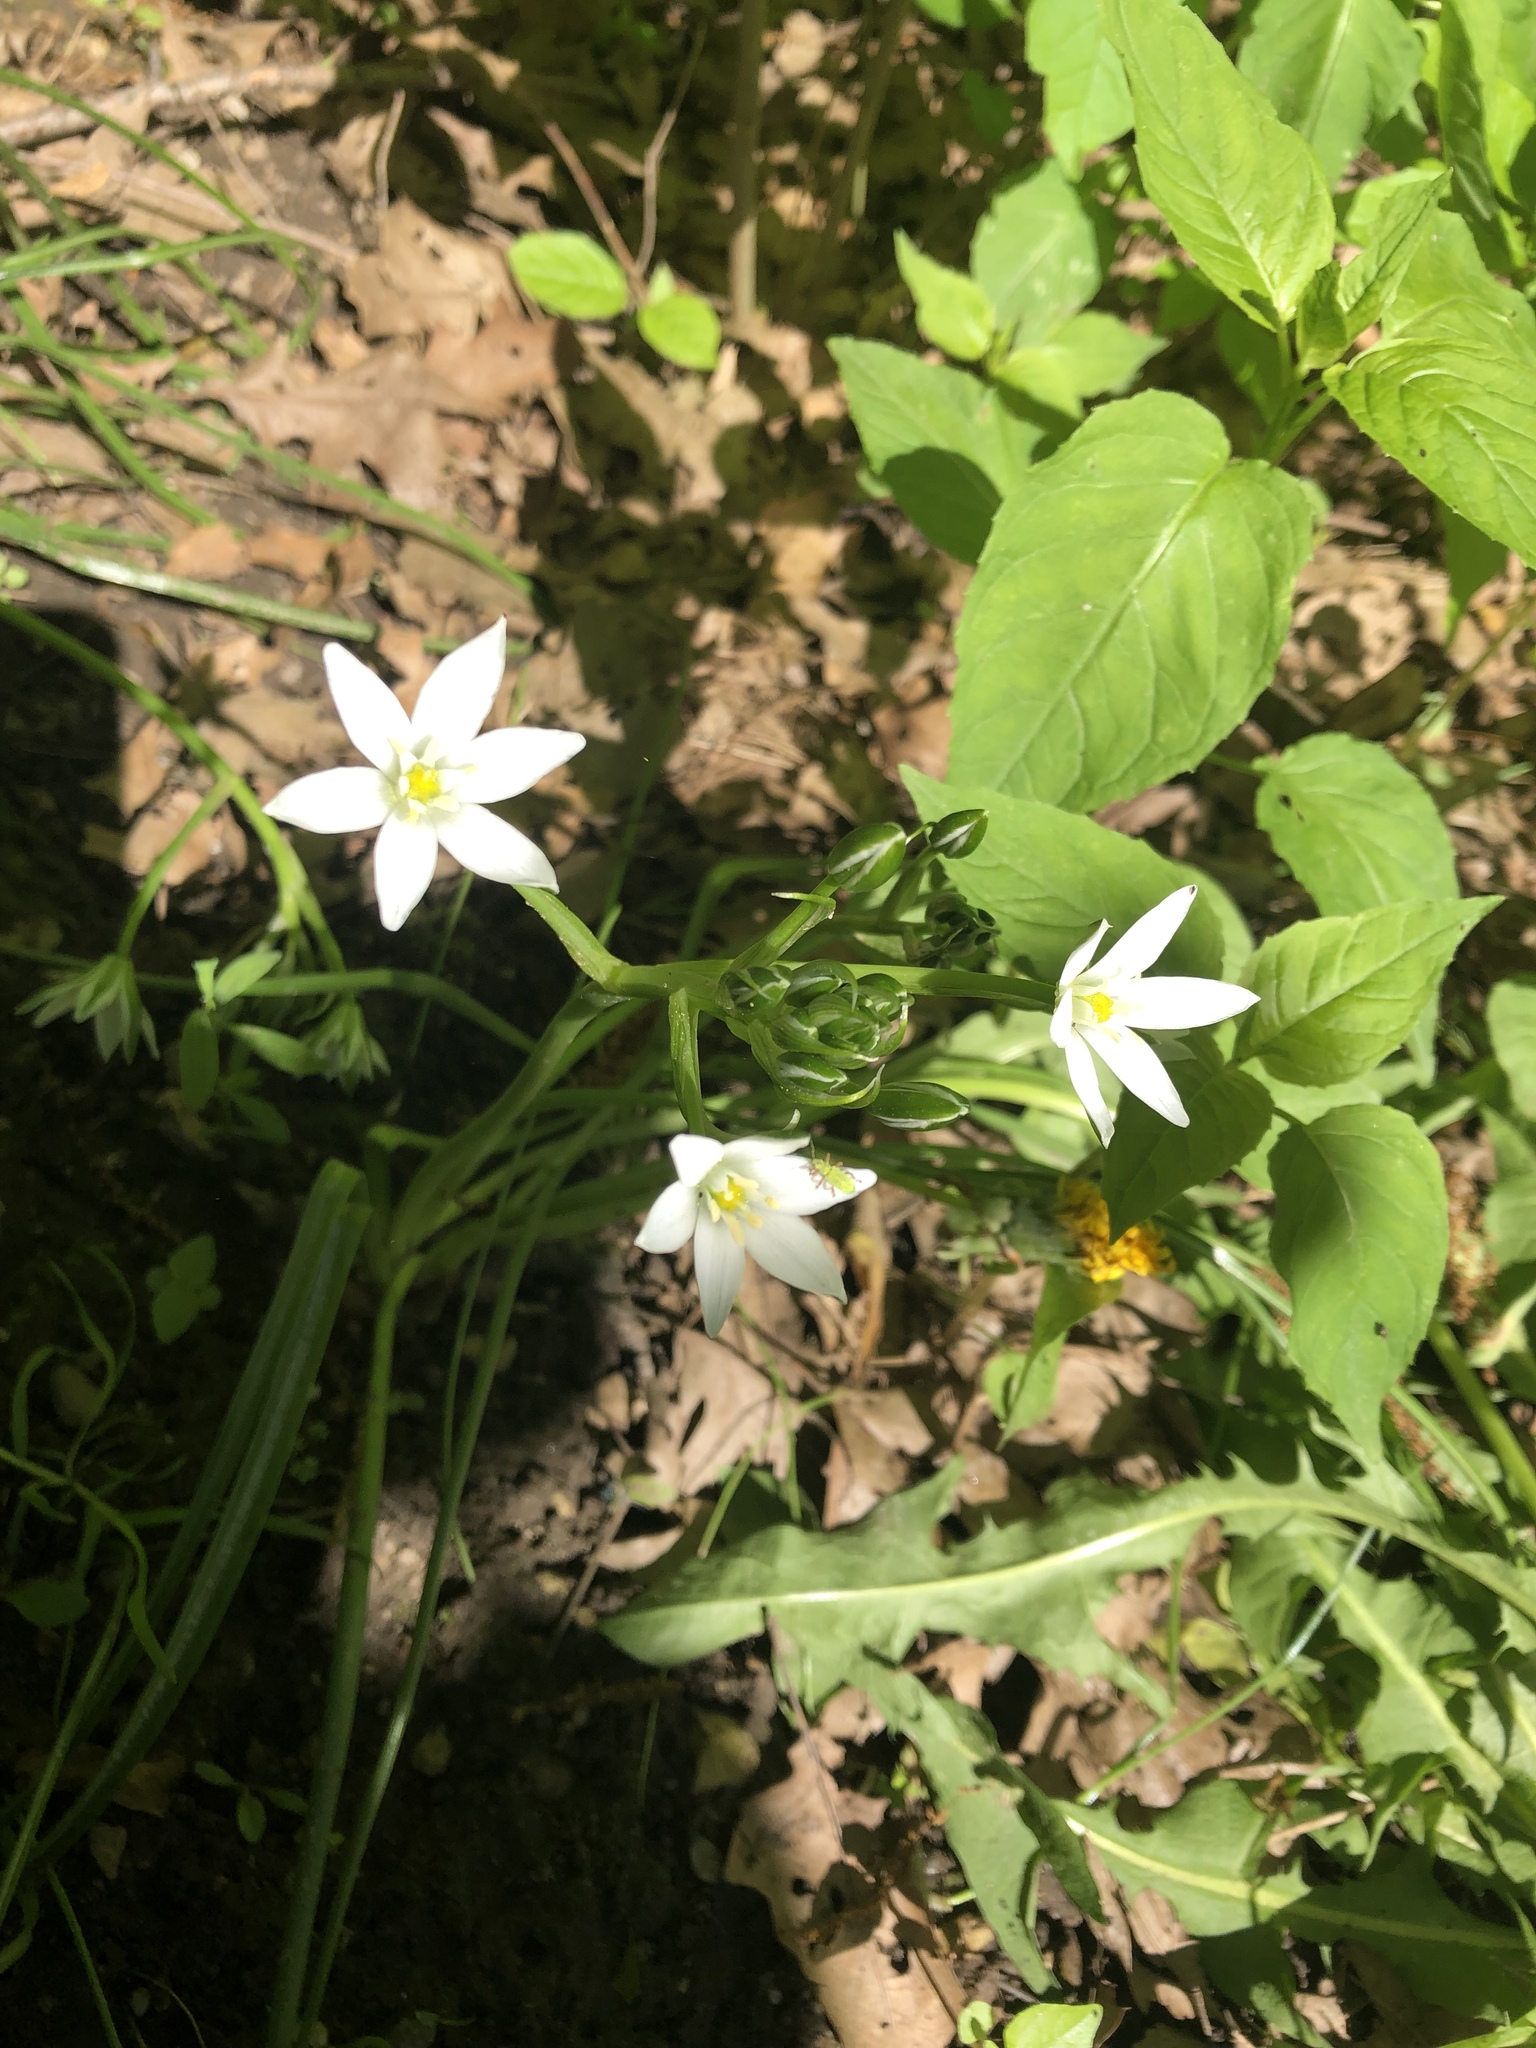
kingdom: Plantae
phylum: Tracheophyta
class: Liliopsida
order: Asparagales
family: Asparagaceae
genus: Ornithogalum
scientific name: Ornithogalum umbellatum
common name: Garden star-of-bethlehem
